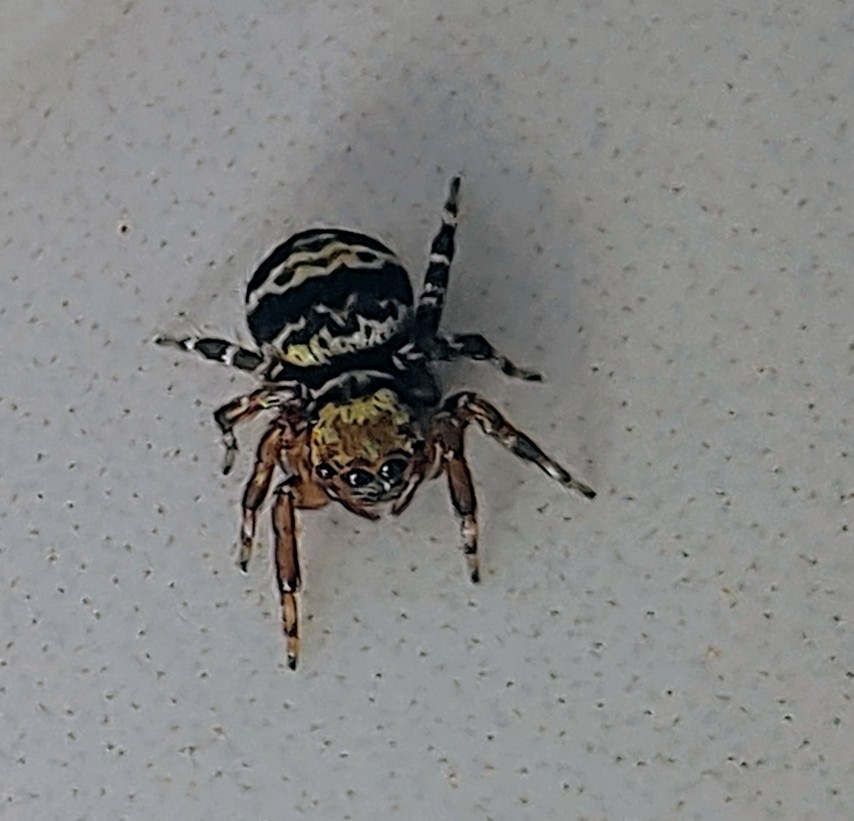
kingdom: Animalia
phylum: Arthropoda
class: Arachnida
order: Araneae
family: Salticidae
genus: Thorelliola
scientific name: Thorelliola ensifera
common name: Jumping spider
